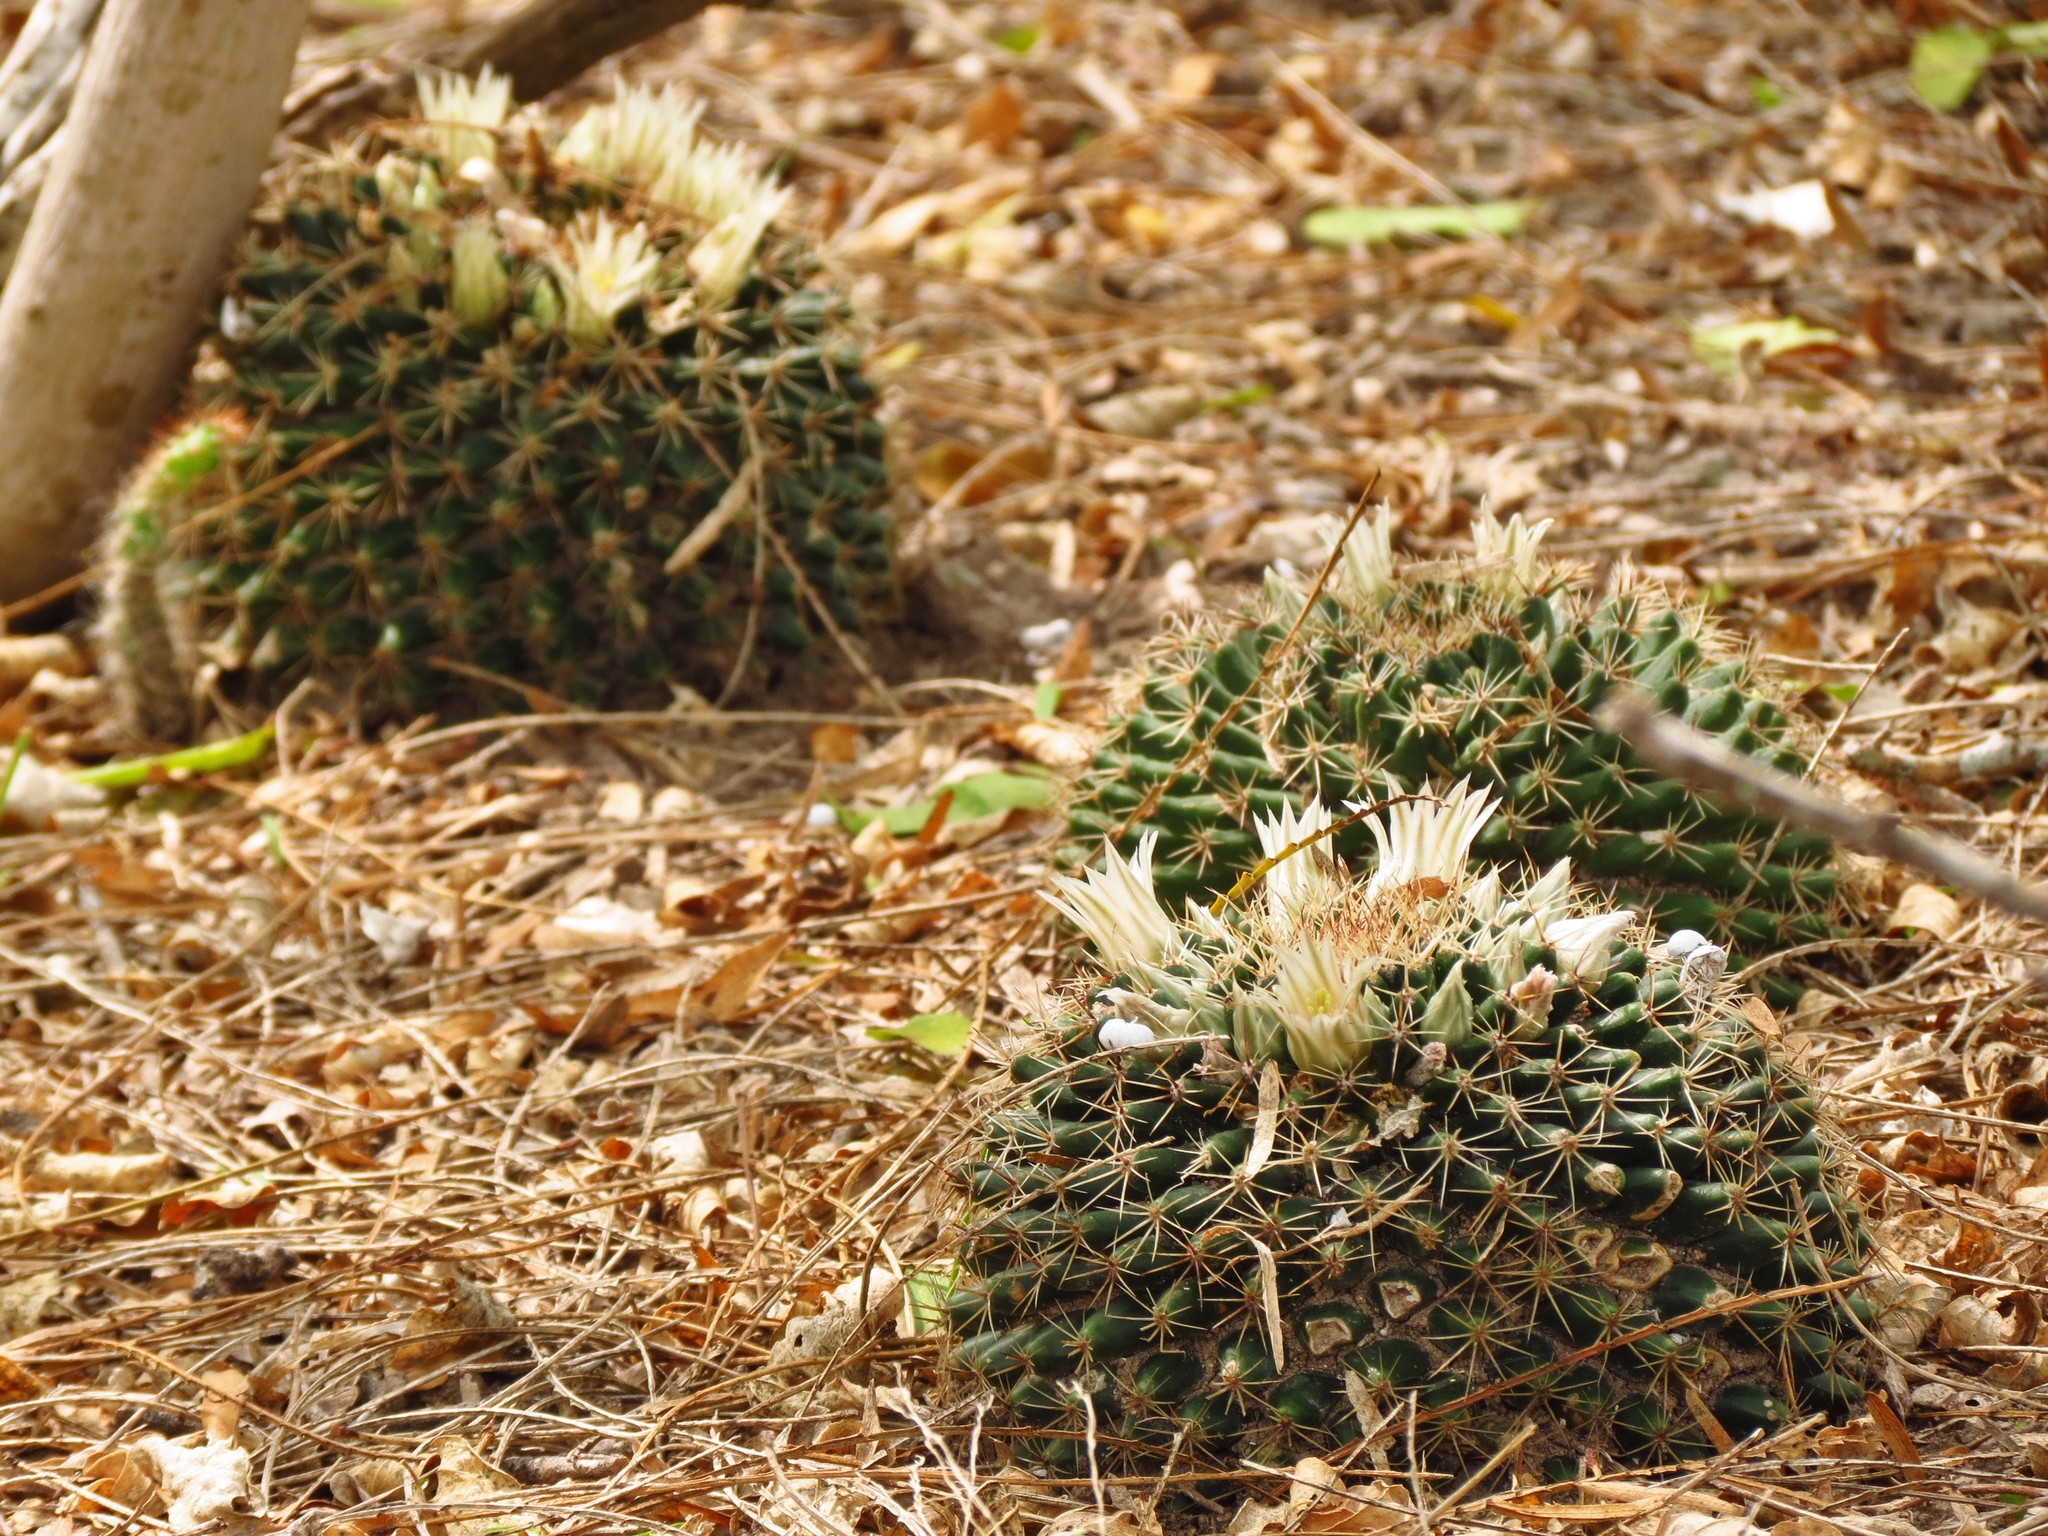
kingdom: Plantae
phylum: Tracheophyta
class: Magnoliopsida
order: Caryophyllales
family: Cactaceae
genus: Mammillaria
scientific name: Mammillaria heyderi
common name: Little nipple cactus
